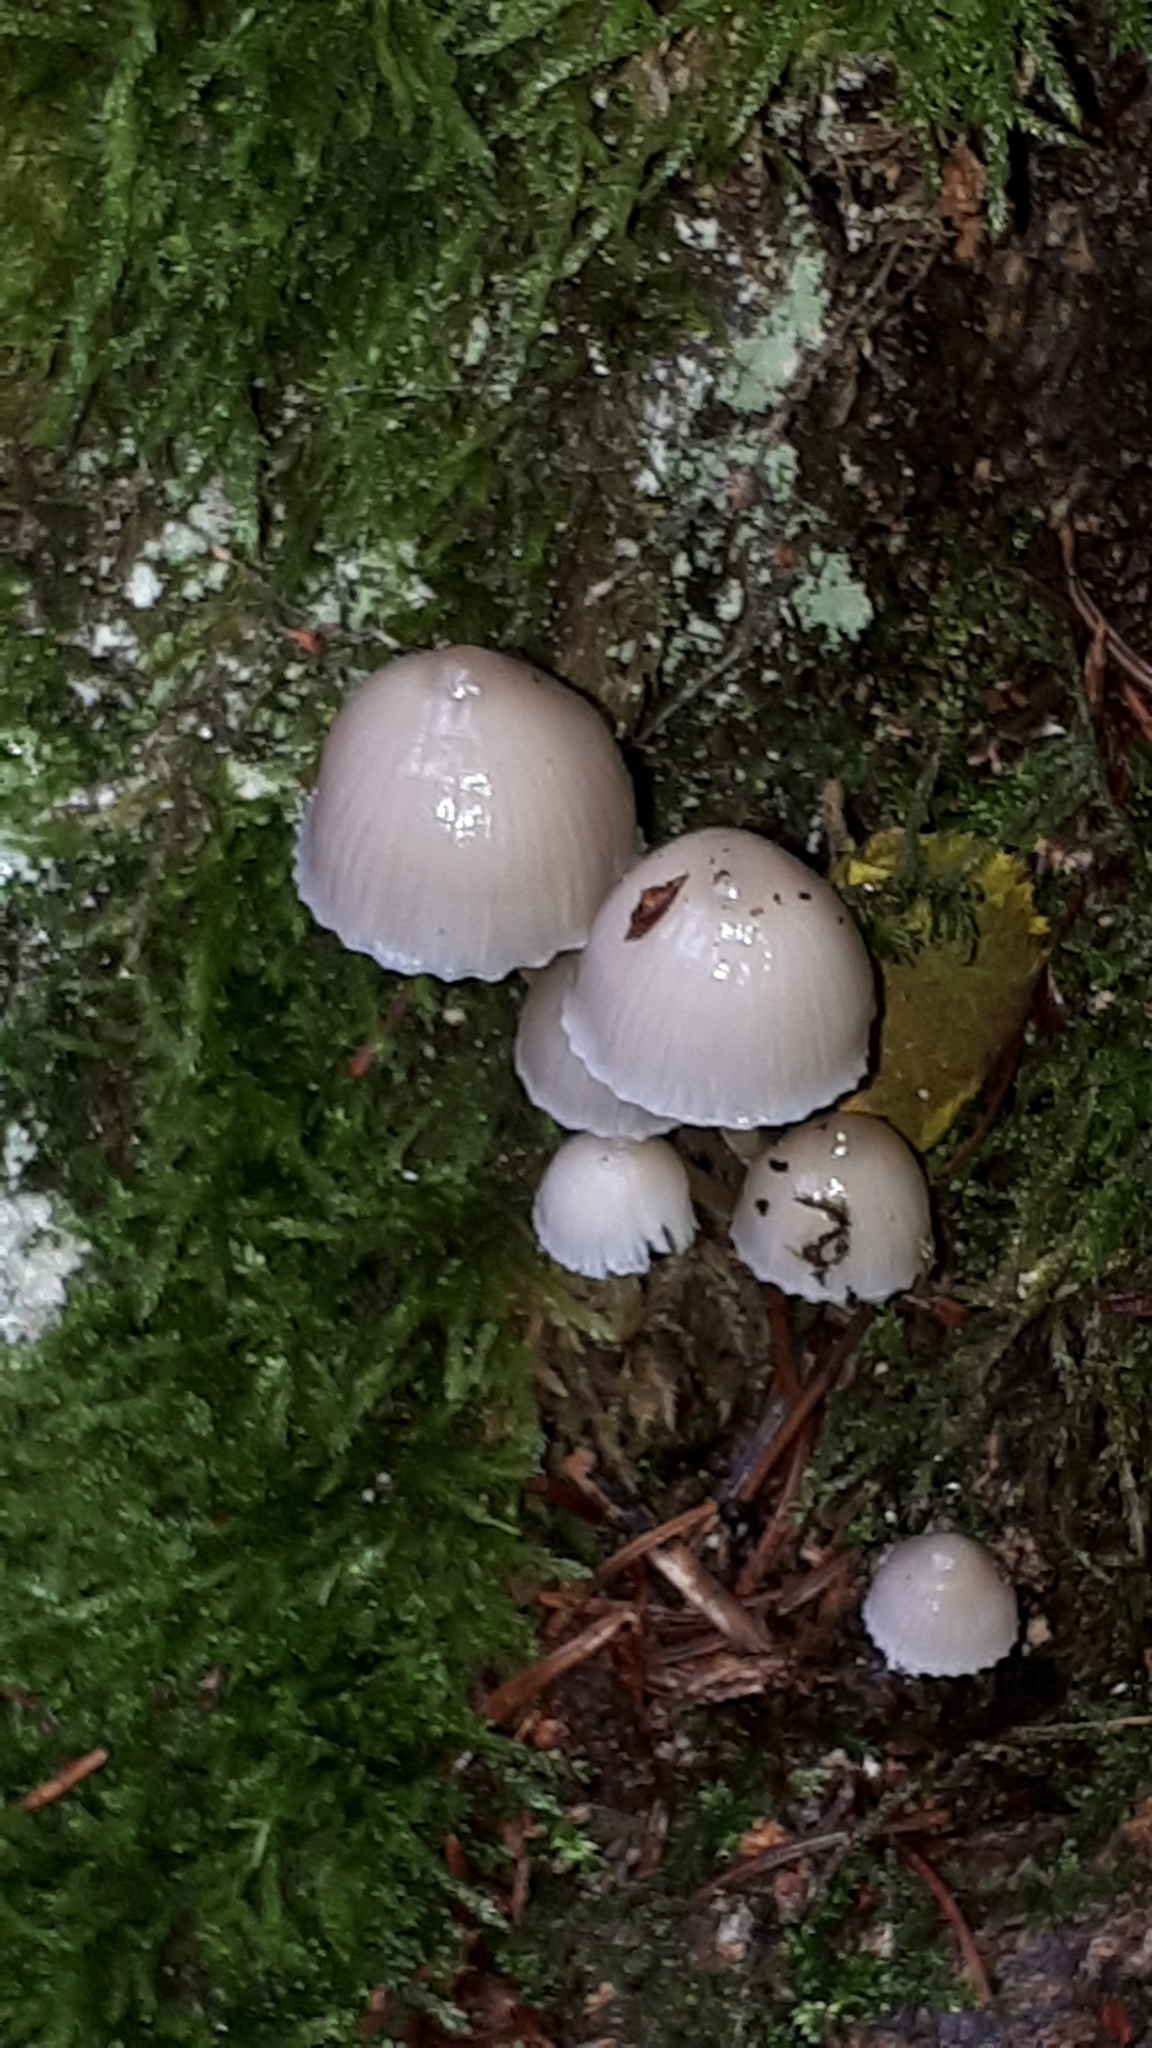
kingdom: Fungi
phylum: Basidiomycota
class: Agaricomycetes
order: Agaricales
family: Mycenaceae
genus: Mycena
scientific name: Mycena epipterygia
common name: Yellowleg bonnet
